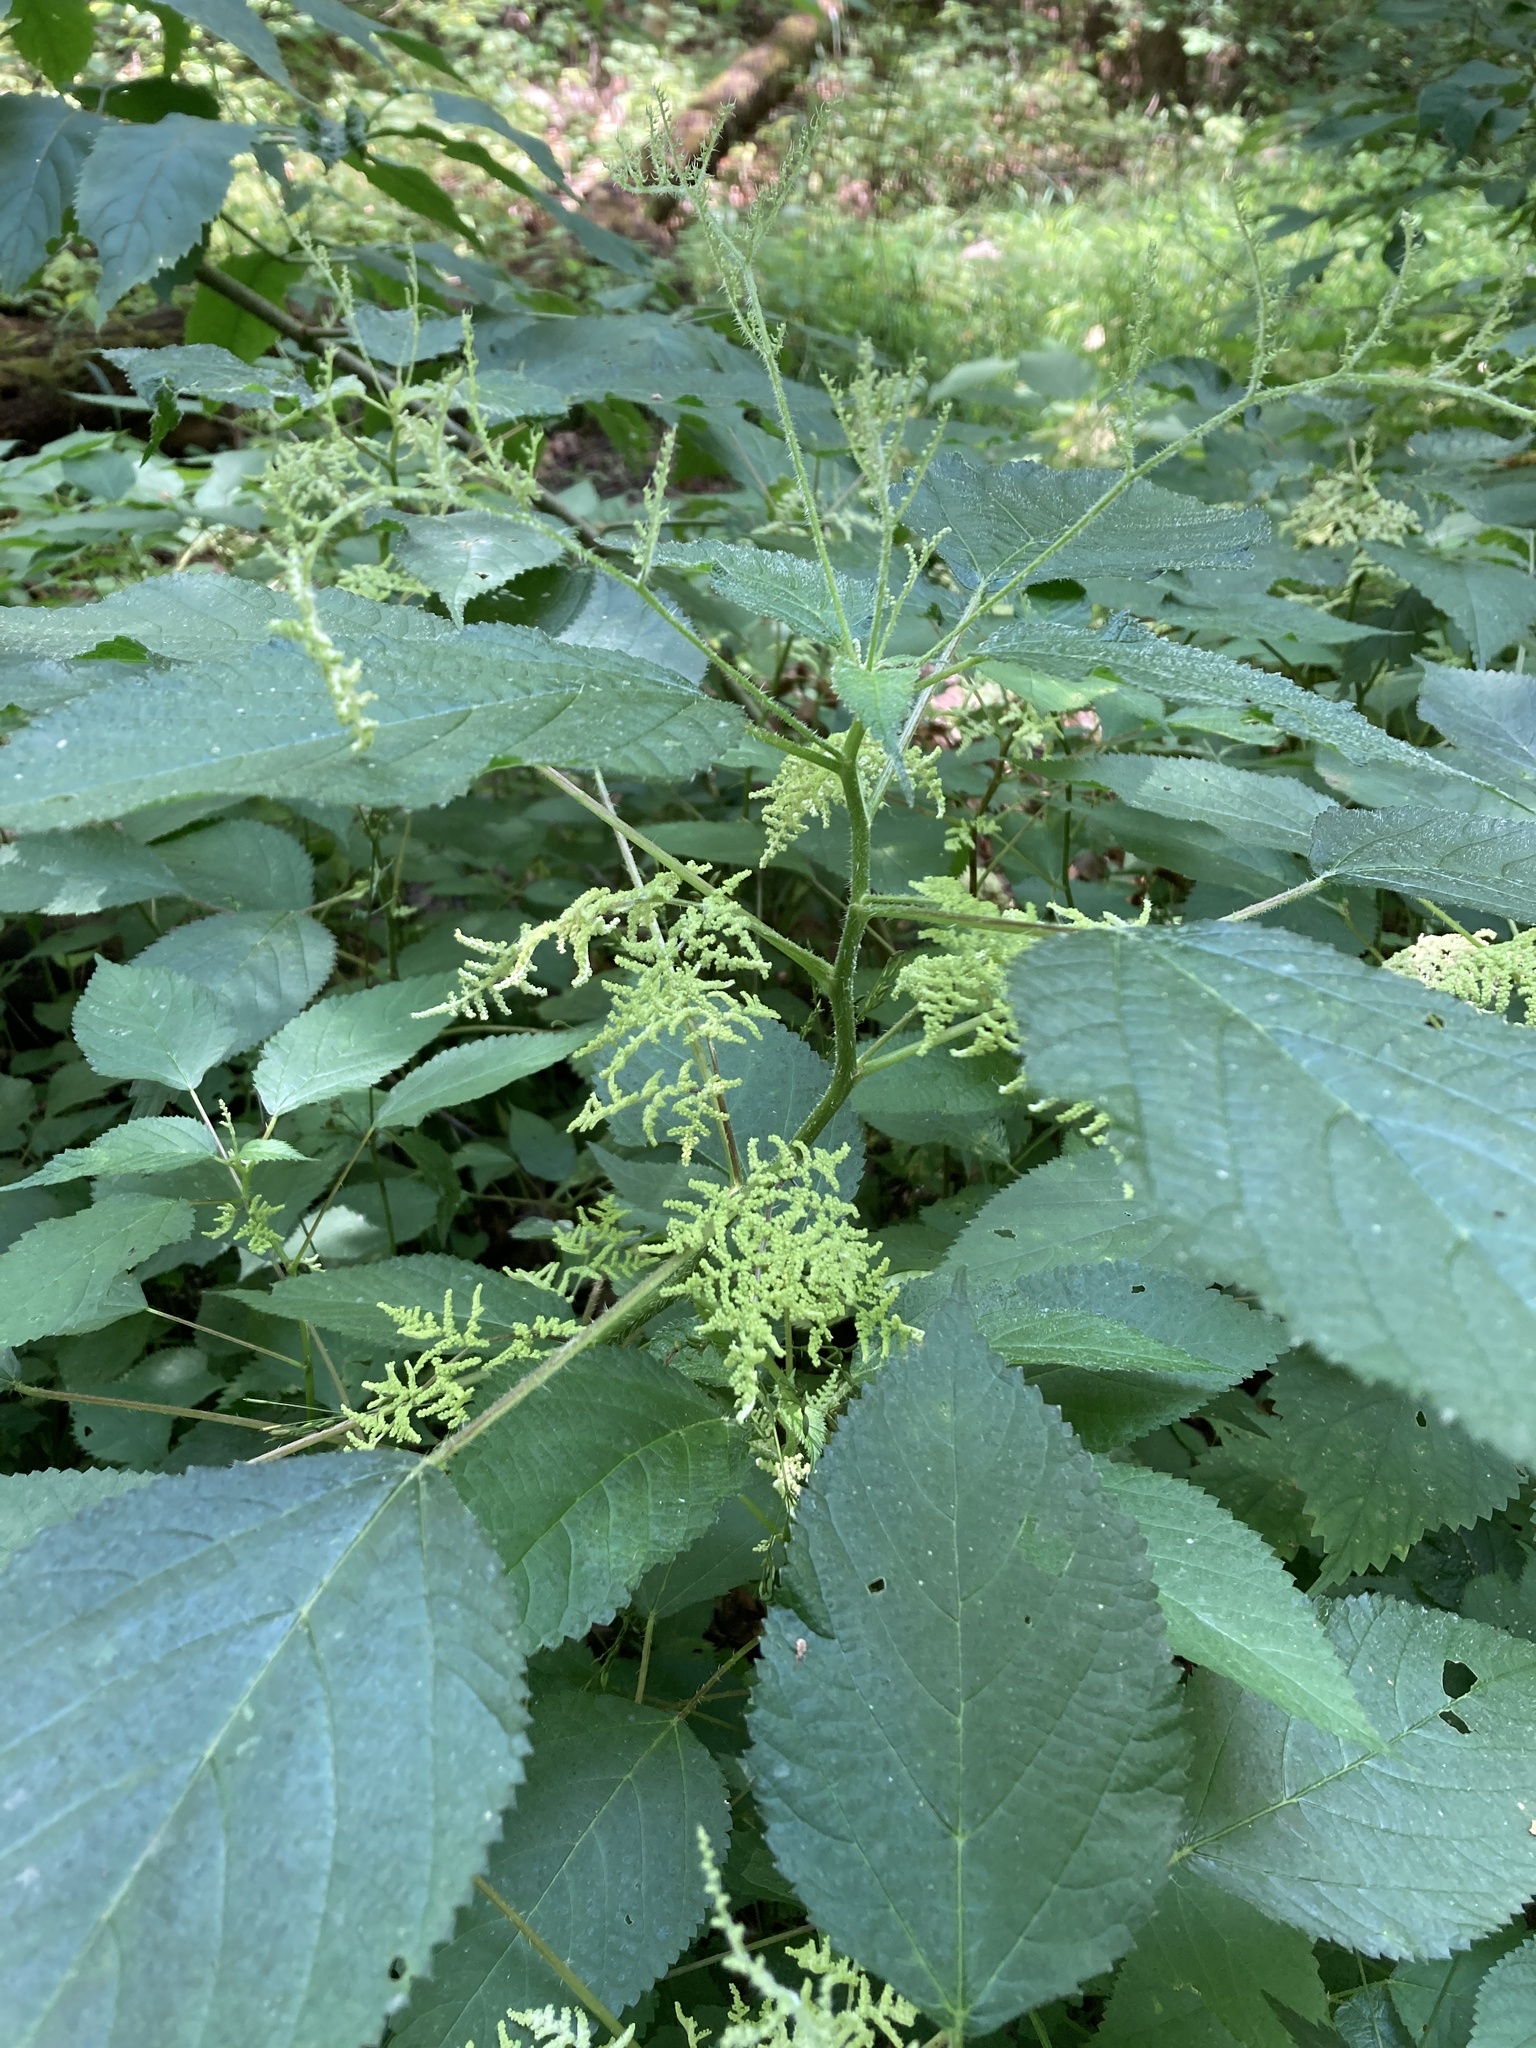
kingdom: Plantae
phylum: Tracheophyta
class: Magnoliopsida
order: Rosales
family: Urticaceae
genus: Laportea
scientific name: Laportea canadensis
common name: Canada nettle
